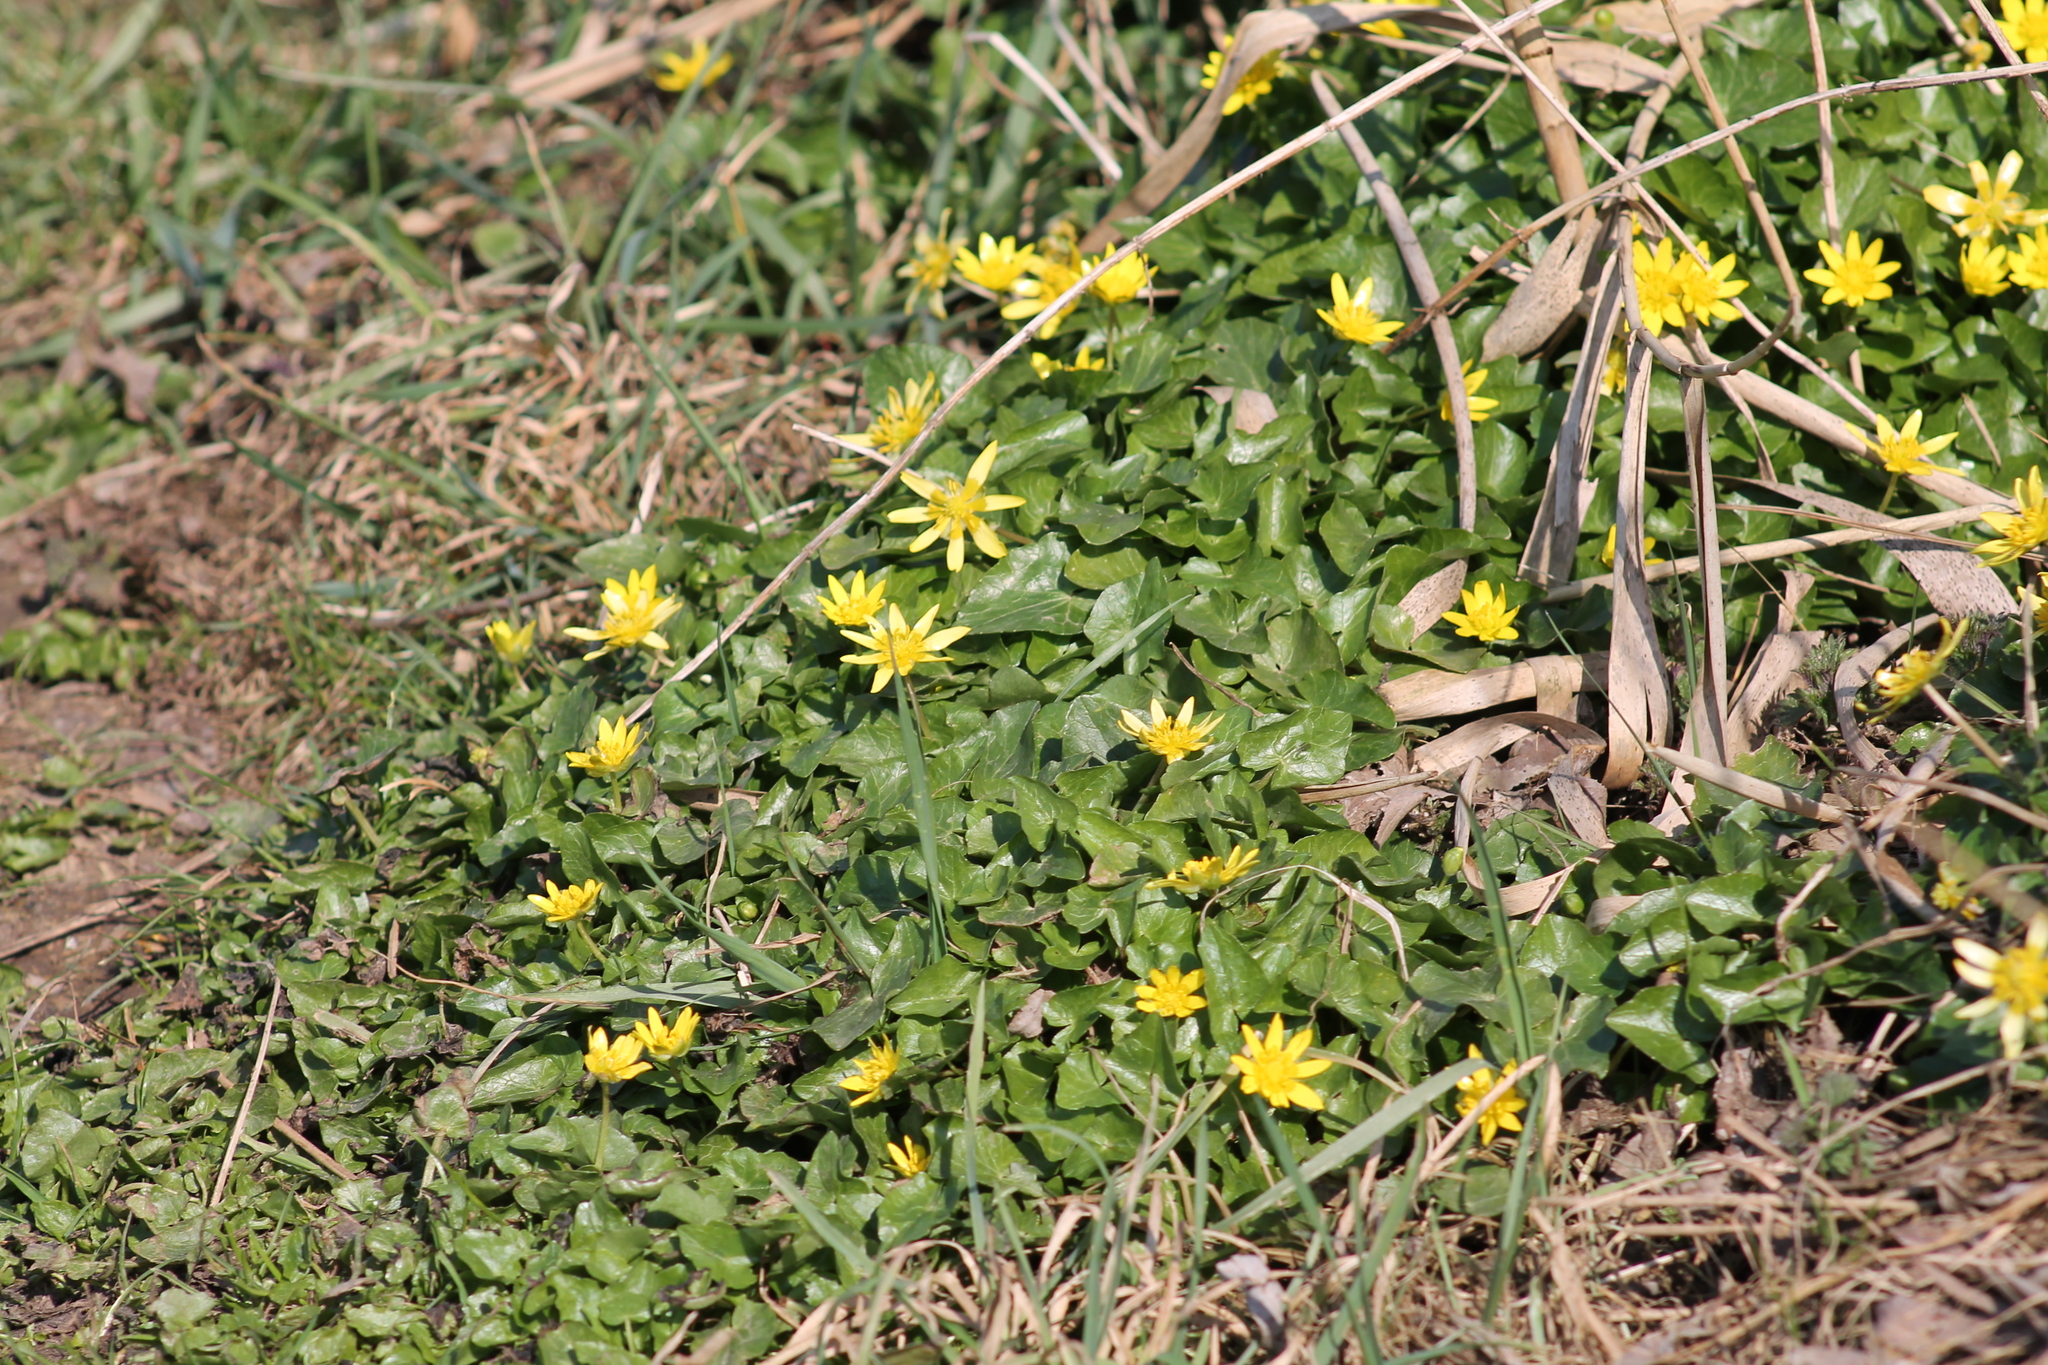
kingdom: Plantae
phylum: Tracheophyta
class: Magnoliopsida
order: Ranunculales
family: Ranunculaceae
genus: Ficaria
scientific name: Ficaria verna
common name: Lesser celandine
